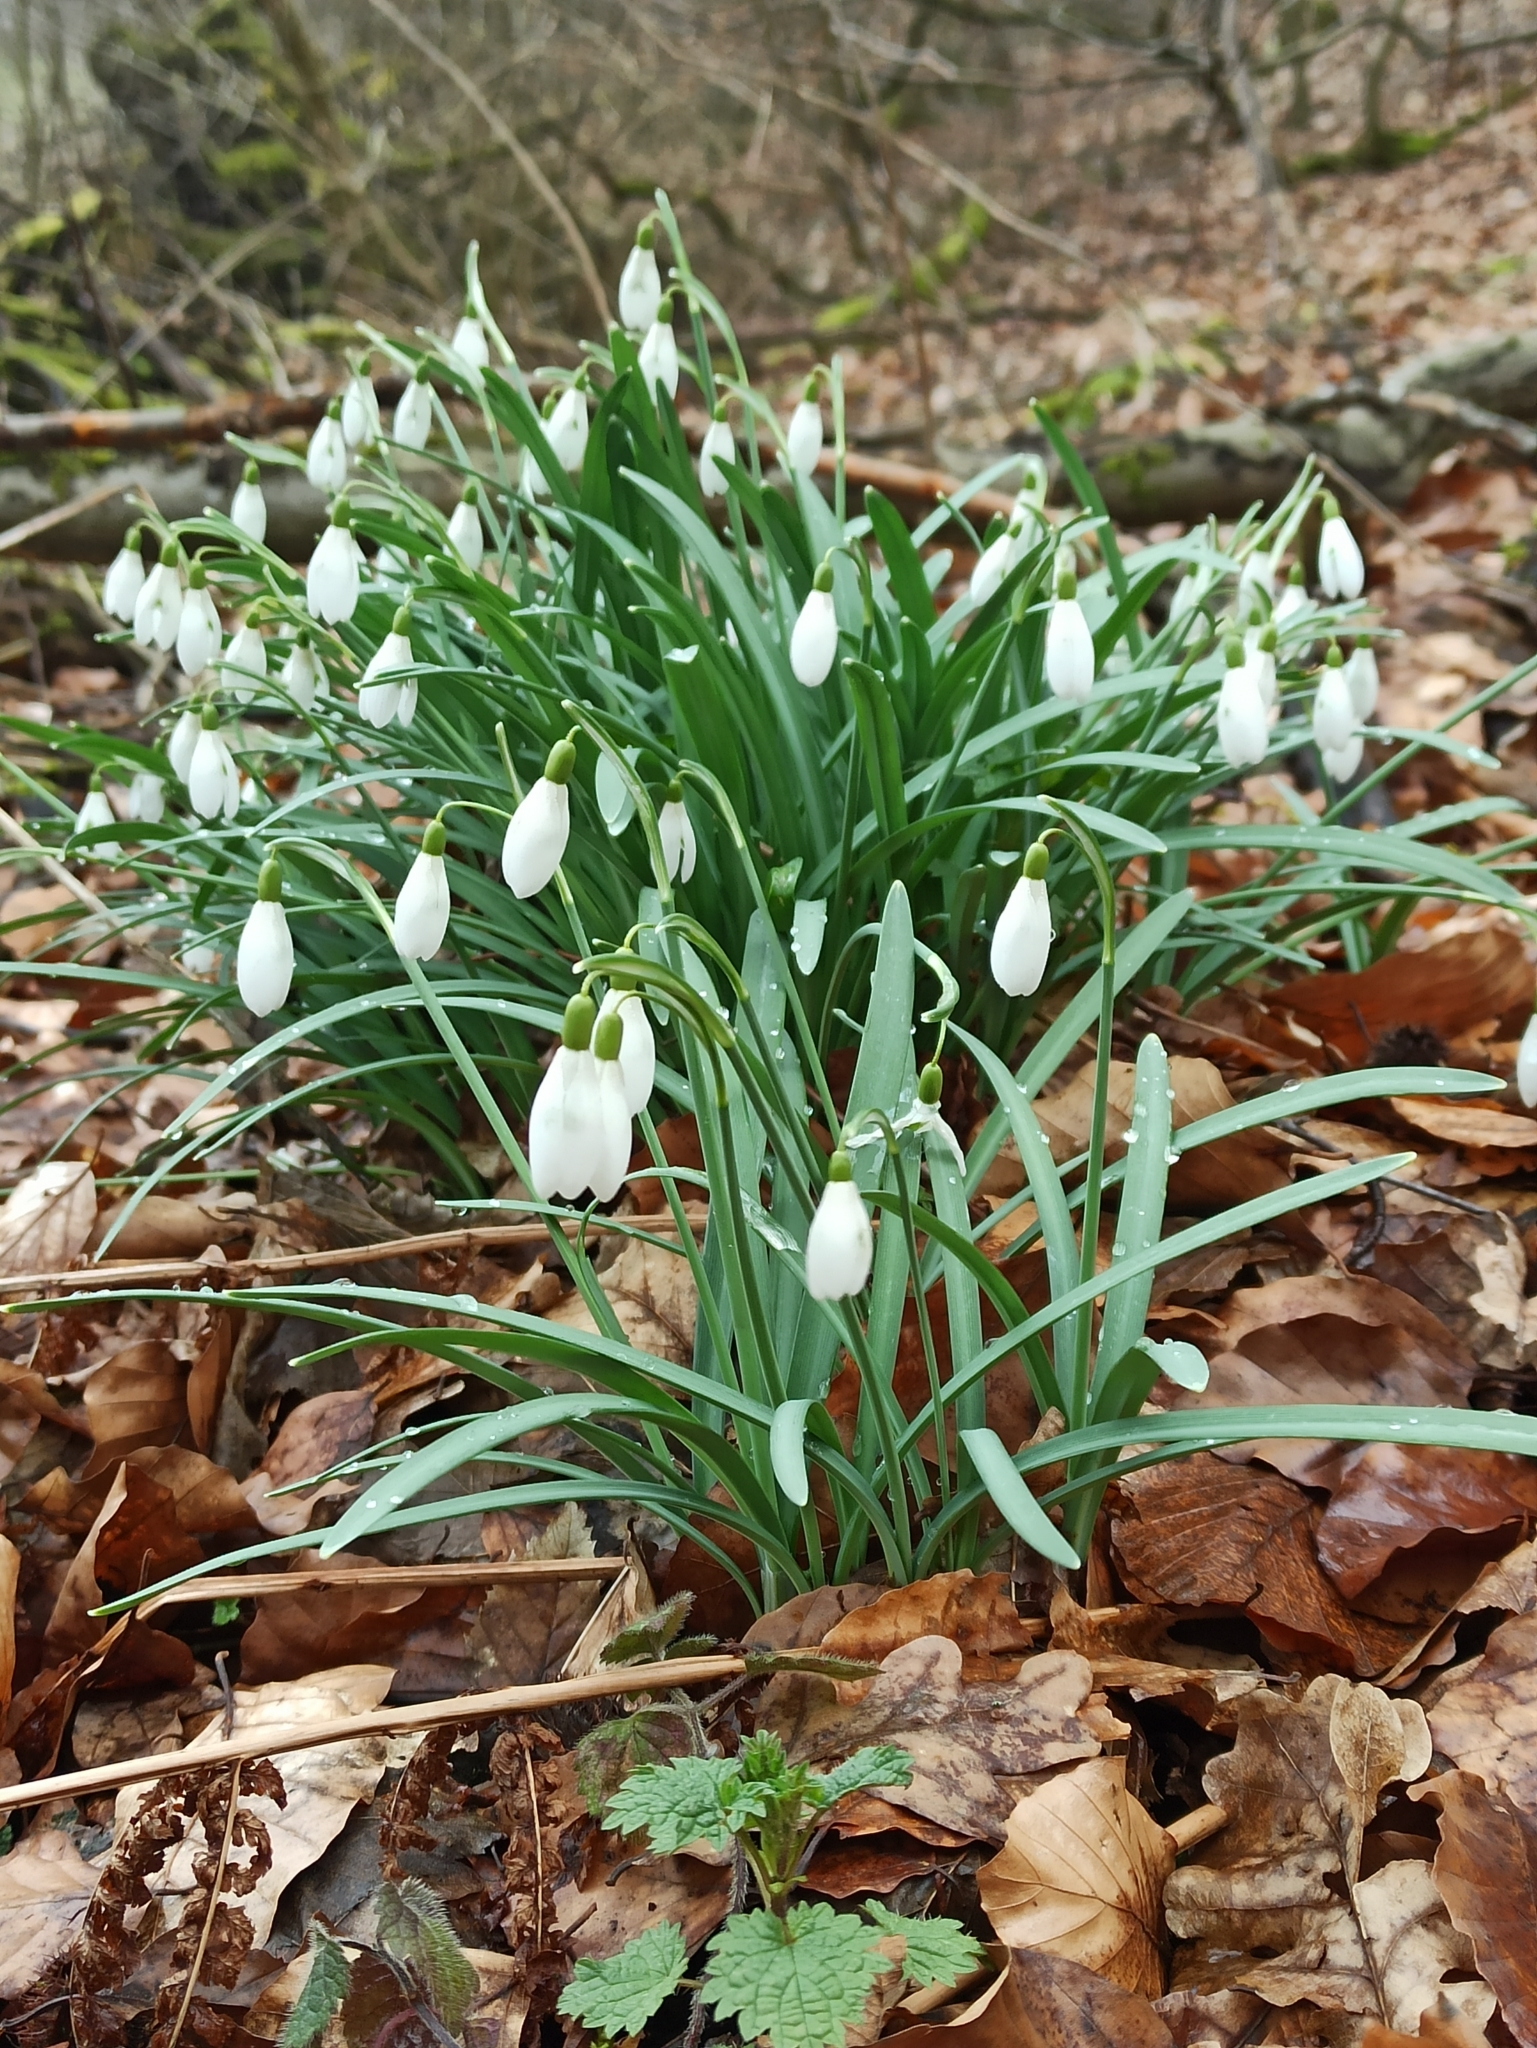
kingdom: Plantae
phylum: Tracheophyta
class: Liliopsida
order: Asparagales
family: Amaryllidaceae
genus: Galanthus
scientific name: Galanthus nivalis
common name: Snowdrop
